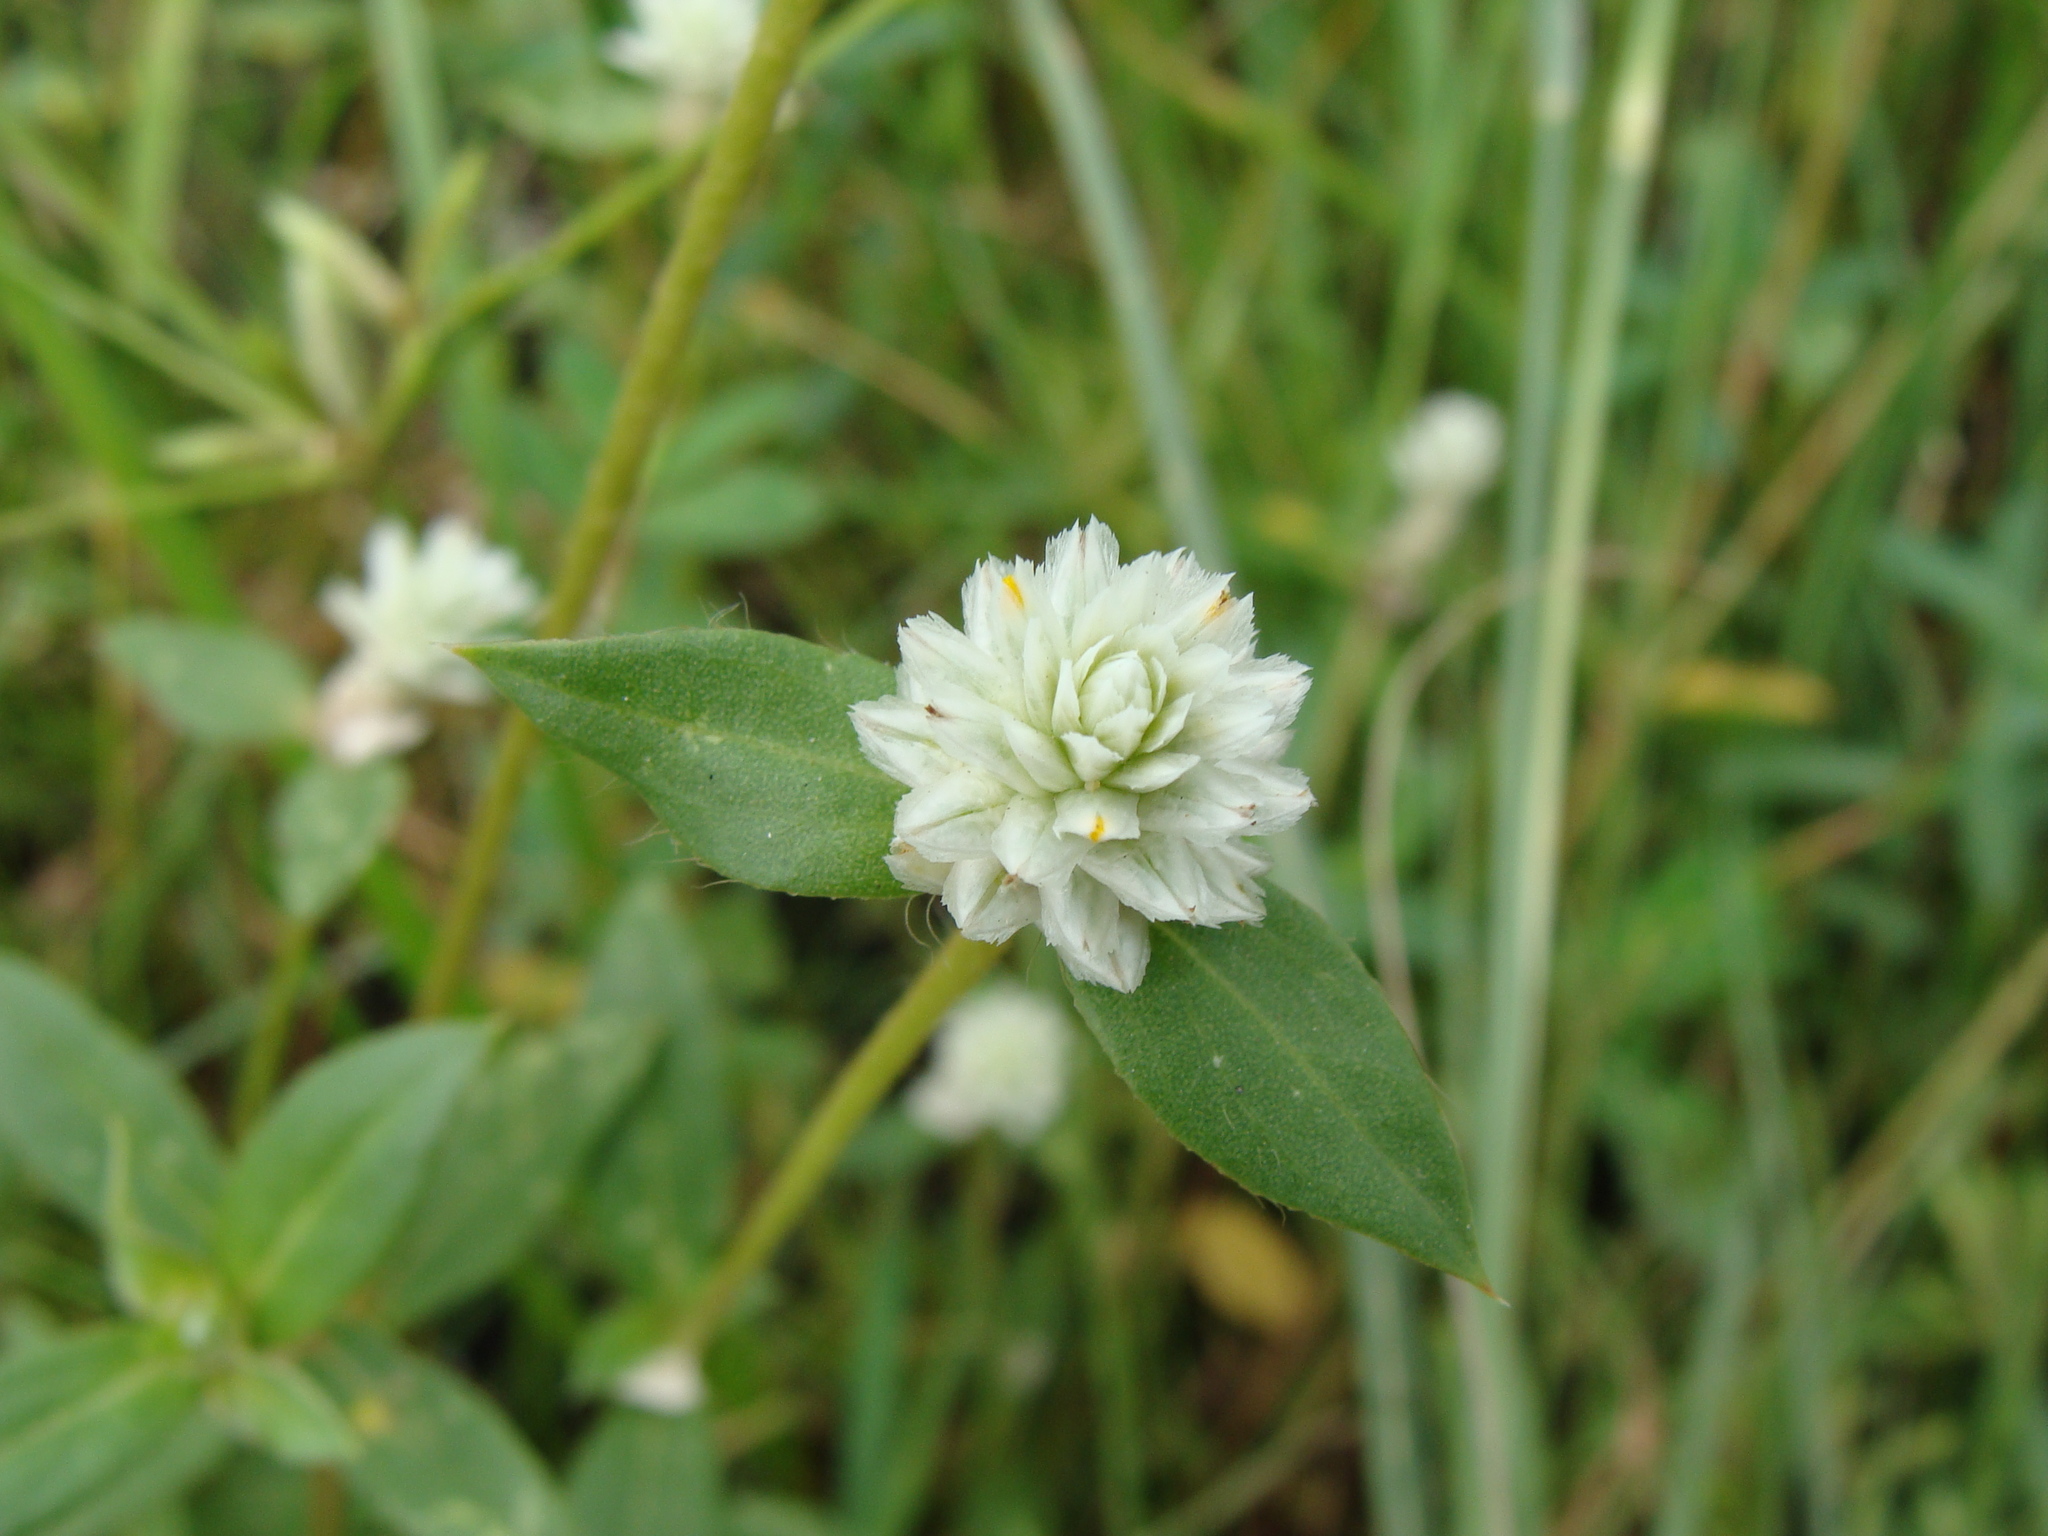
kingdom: Plantae
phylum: Tracheophyta
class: Magnoliopsida
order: Caryophyllales
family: Amaranthaceae
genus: Gomphrena
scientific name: Gomphrena serrata
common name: Arrasa con todo
